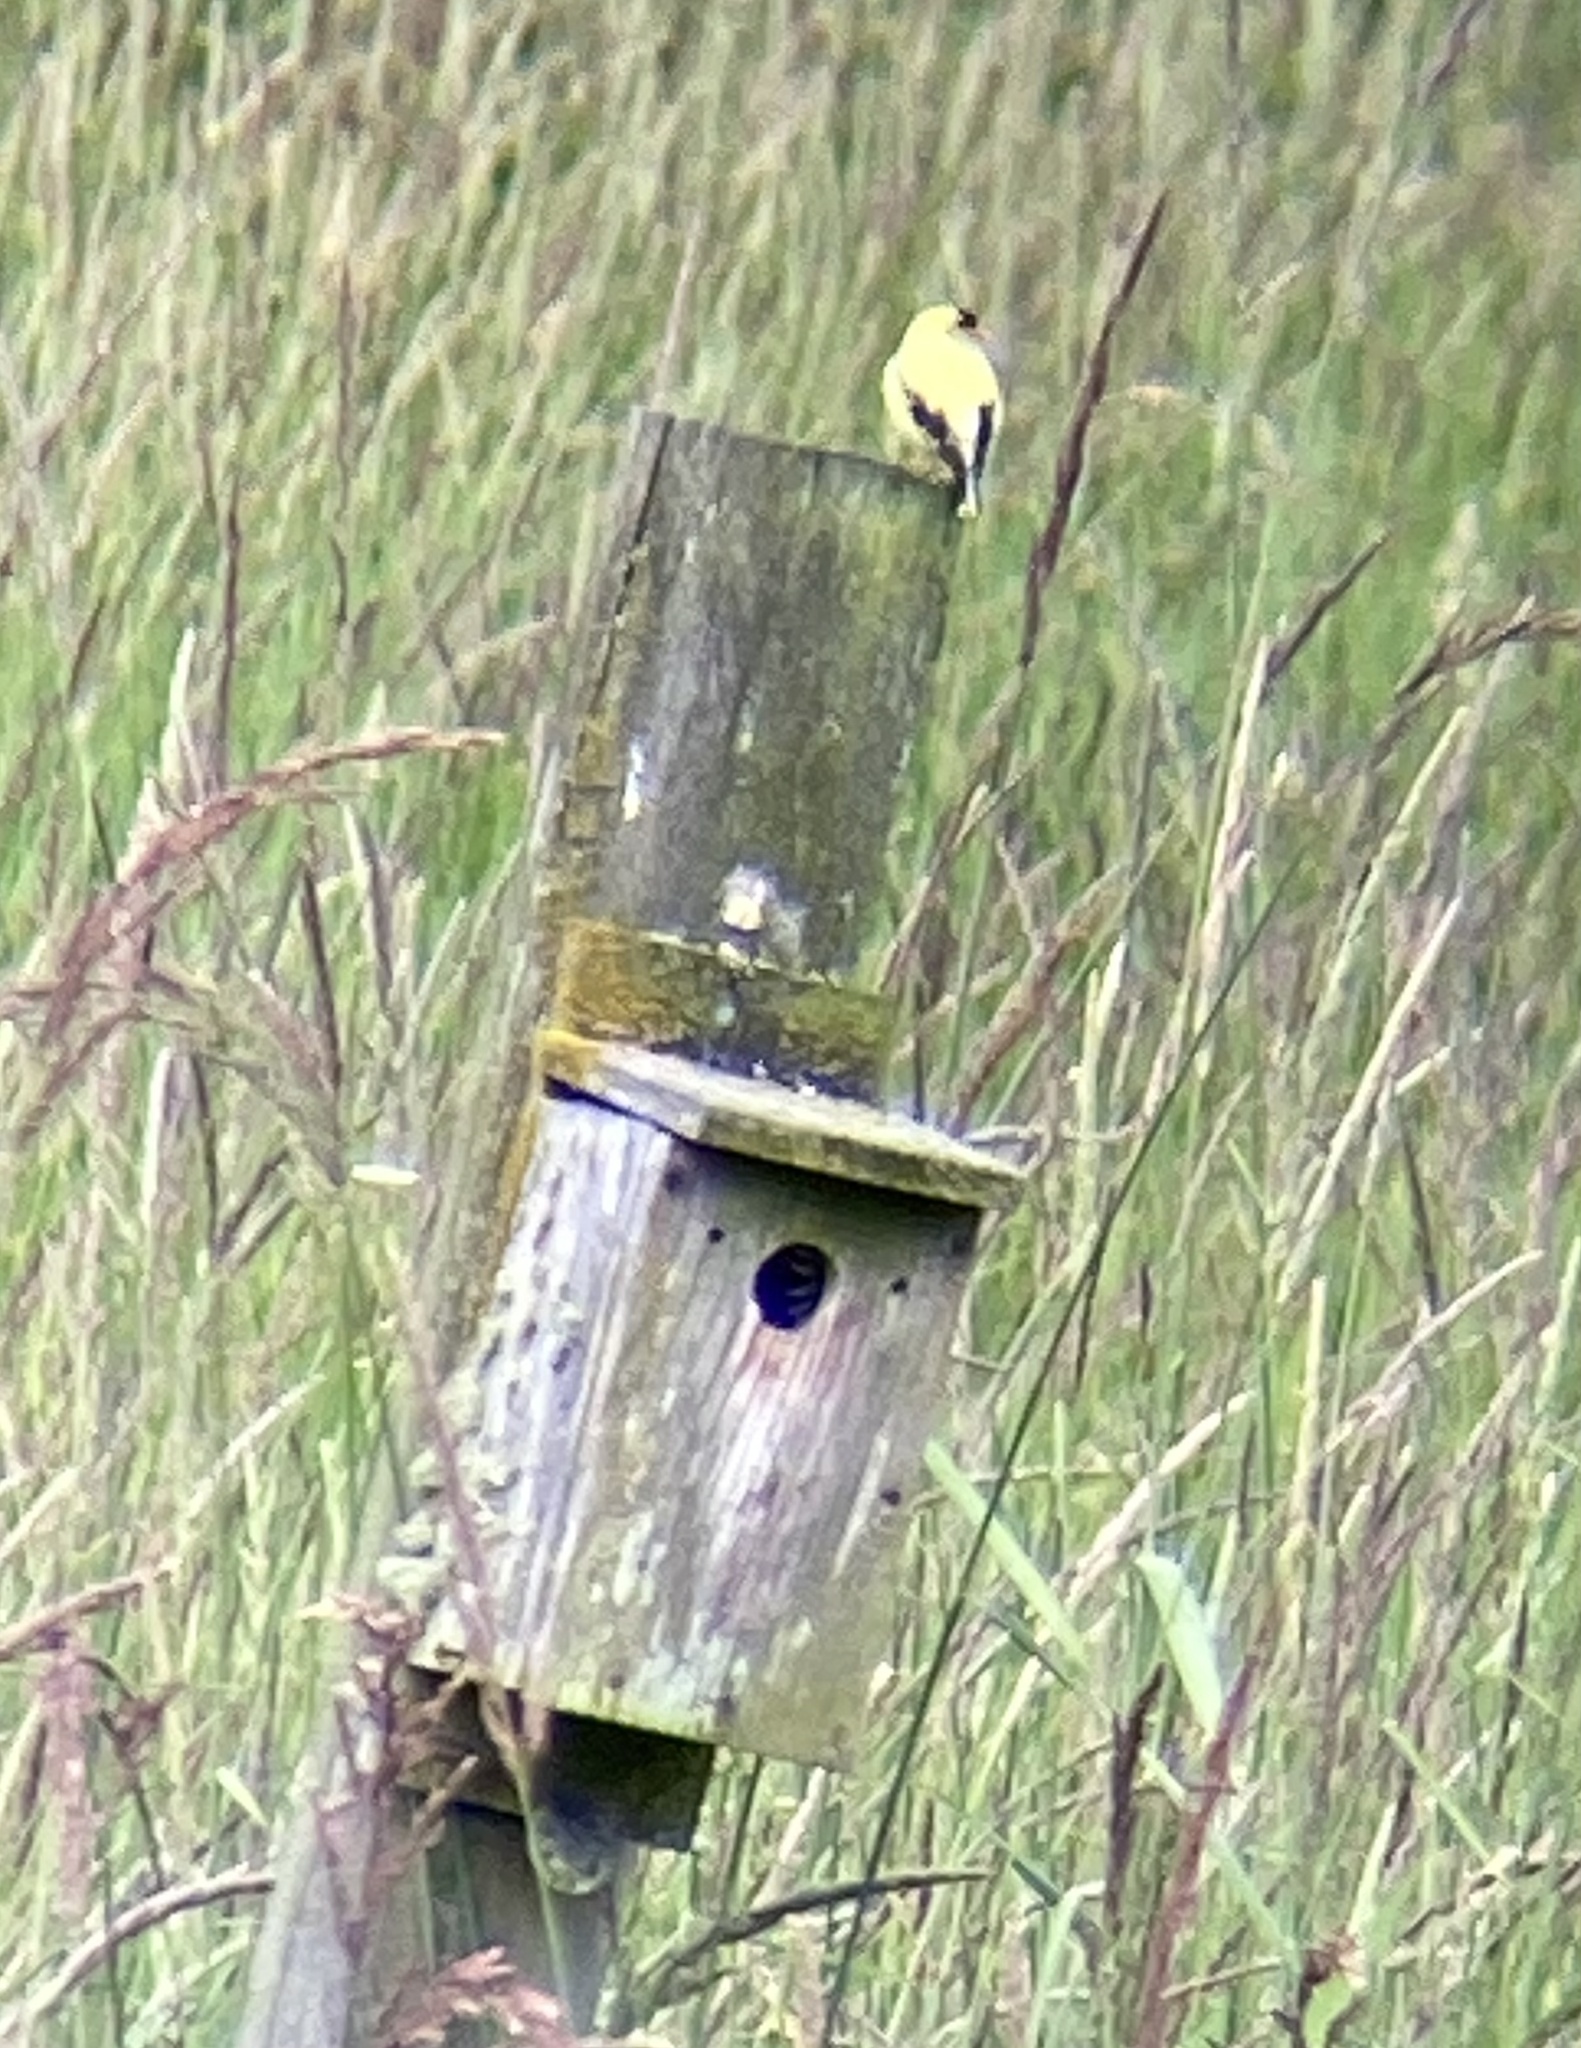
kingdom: Animalia
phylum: Chordata
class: Aves
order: Passeriformes
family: Fringillidae
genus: Spinus
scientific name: Spinus tristis
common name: American goldfinch
